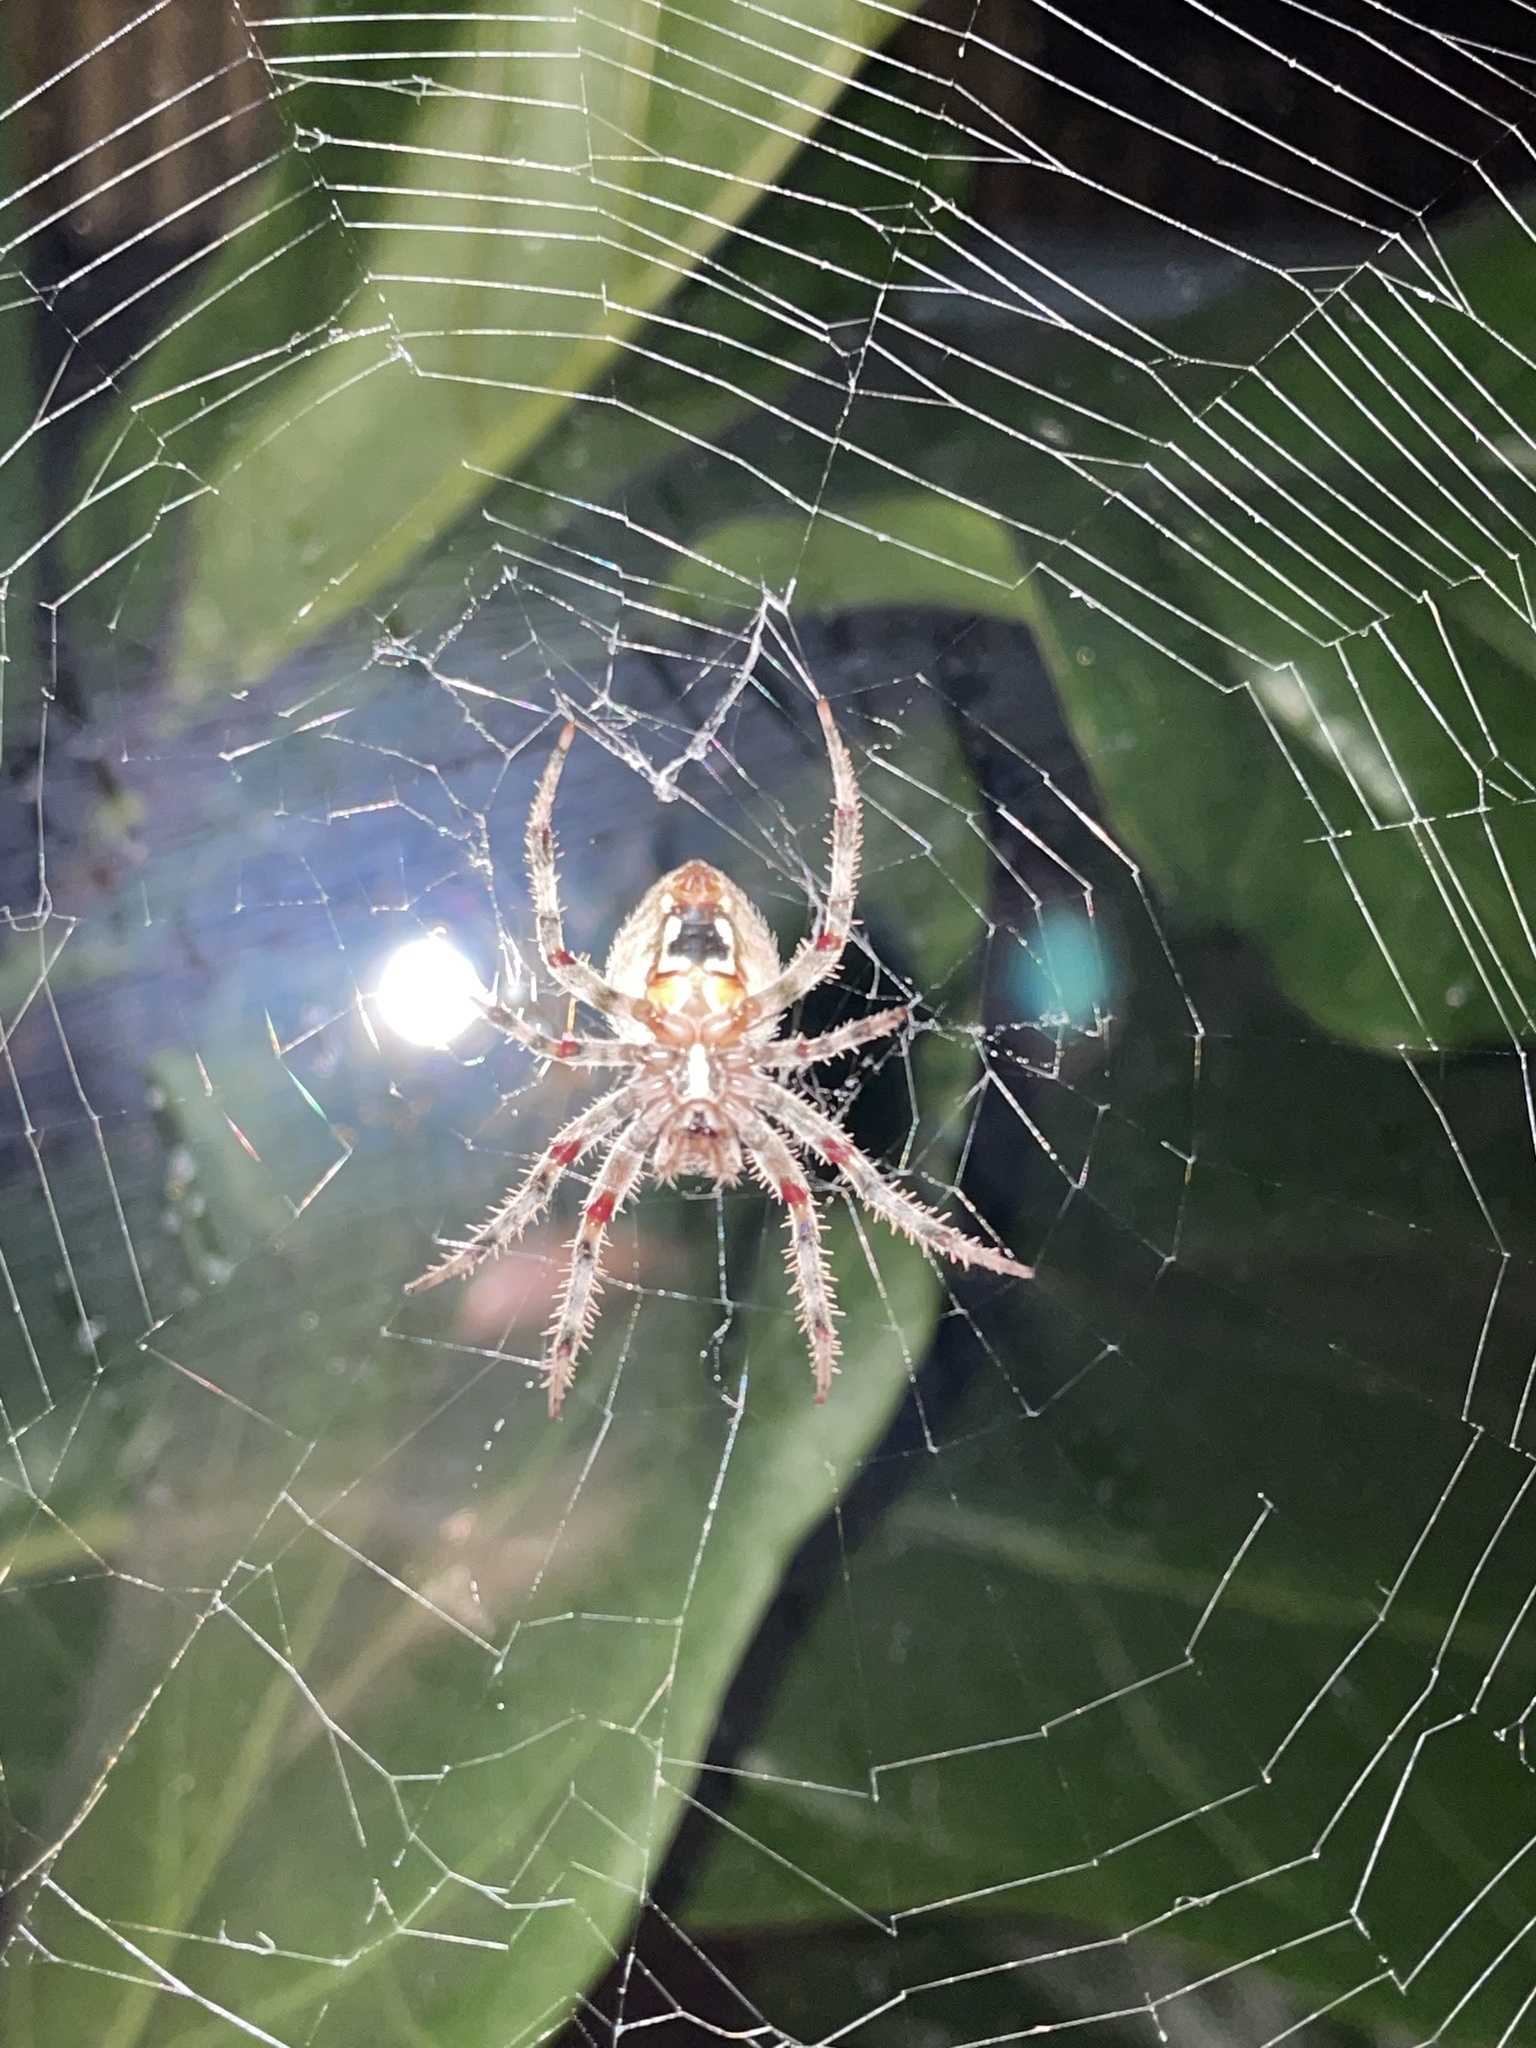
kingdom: Animalia
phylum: Arthropoda
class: Arachnida
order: Araneae
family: Araneidae
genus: Neoscona
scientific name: Neoscona crucifera
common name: Spotted orbweaver
